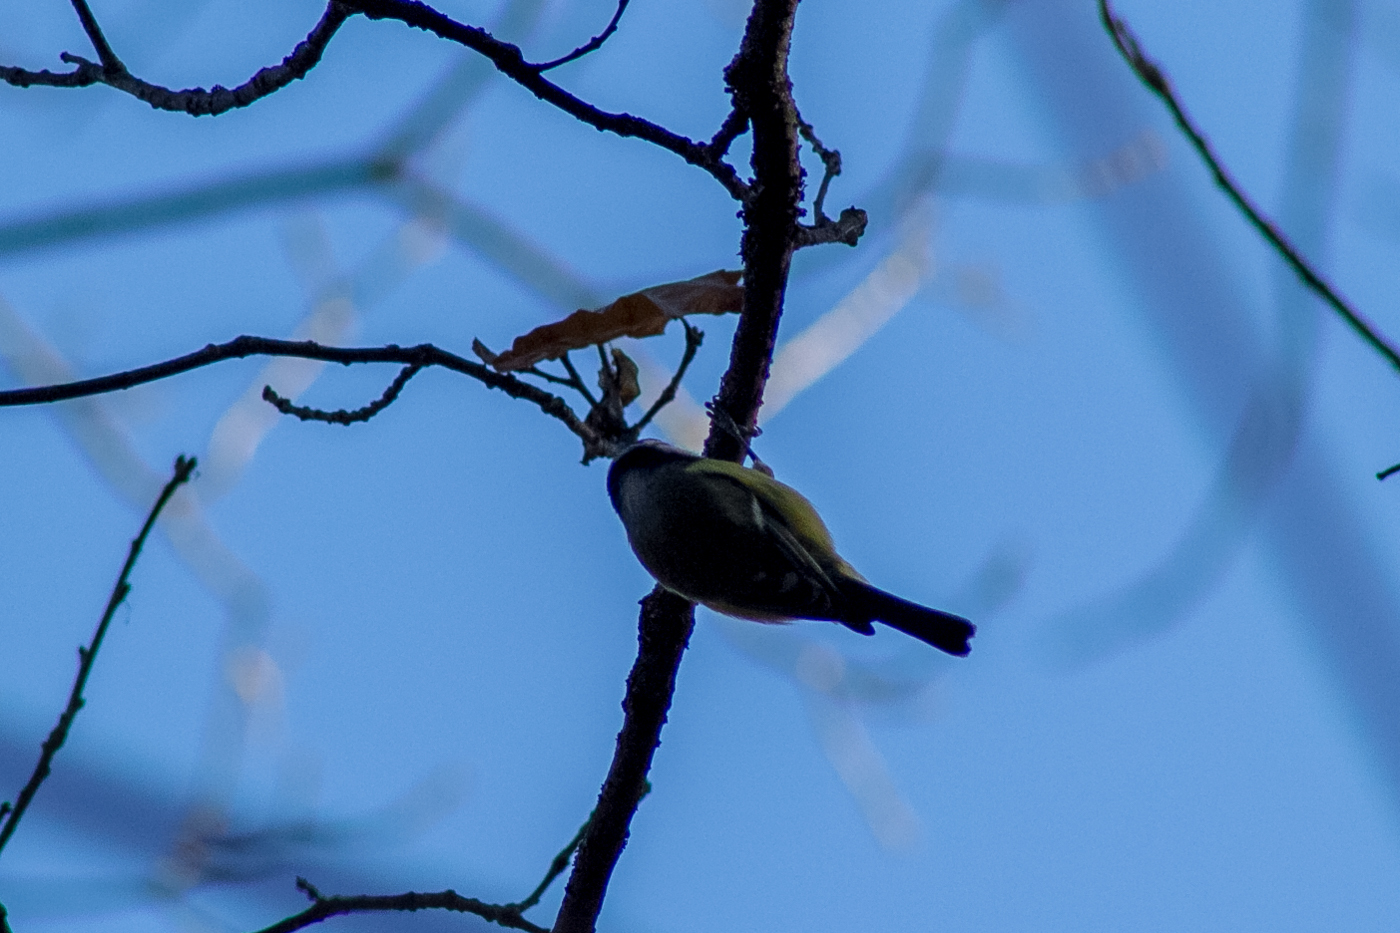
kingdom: Animalia
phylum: Chordata
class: Aves
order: Passeriformes
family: Paridae
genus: Cyanistes
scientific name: Cyanistes caeruleus
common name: Eurasian blue tit
